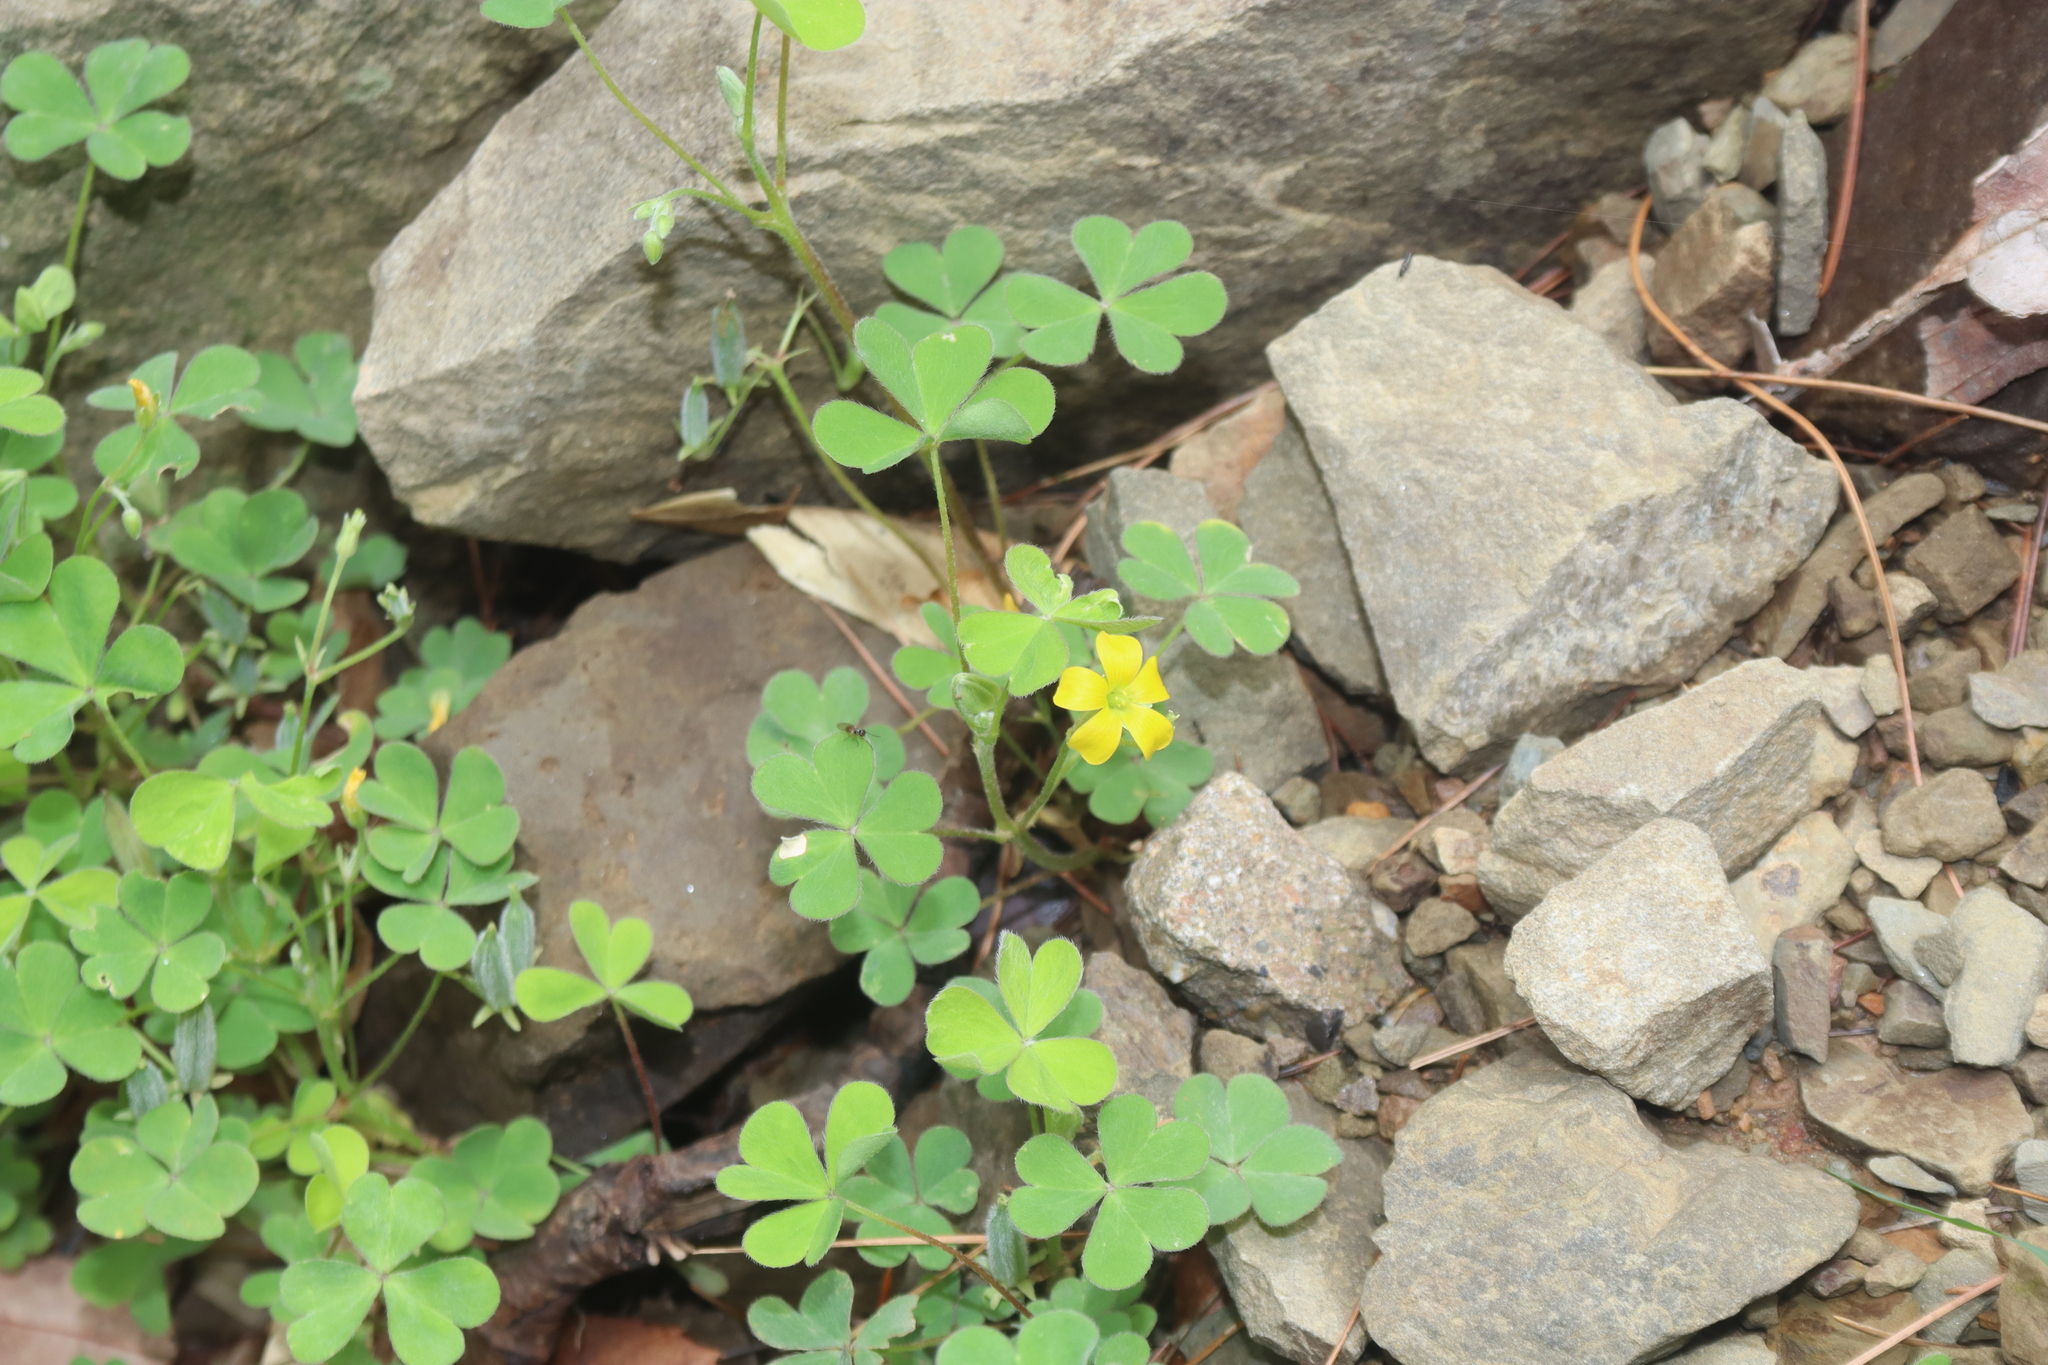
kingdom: Plantae
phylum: Tracheophyta
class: Magnoliopsida
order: Oxalidales
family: Oxalidaceae
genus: Oxalis
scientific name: Oxalis corniculata
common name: Procumbent yellow-sorrel
